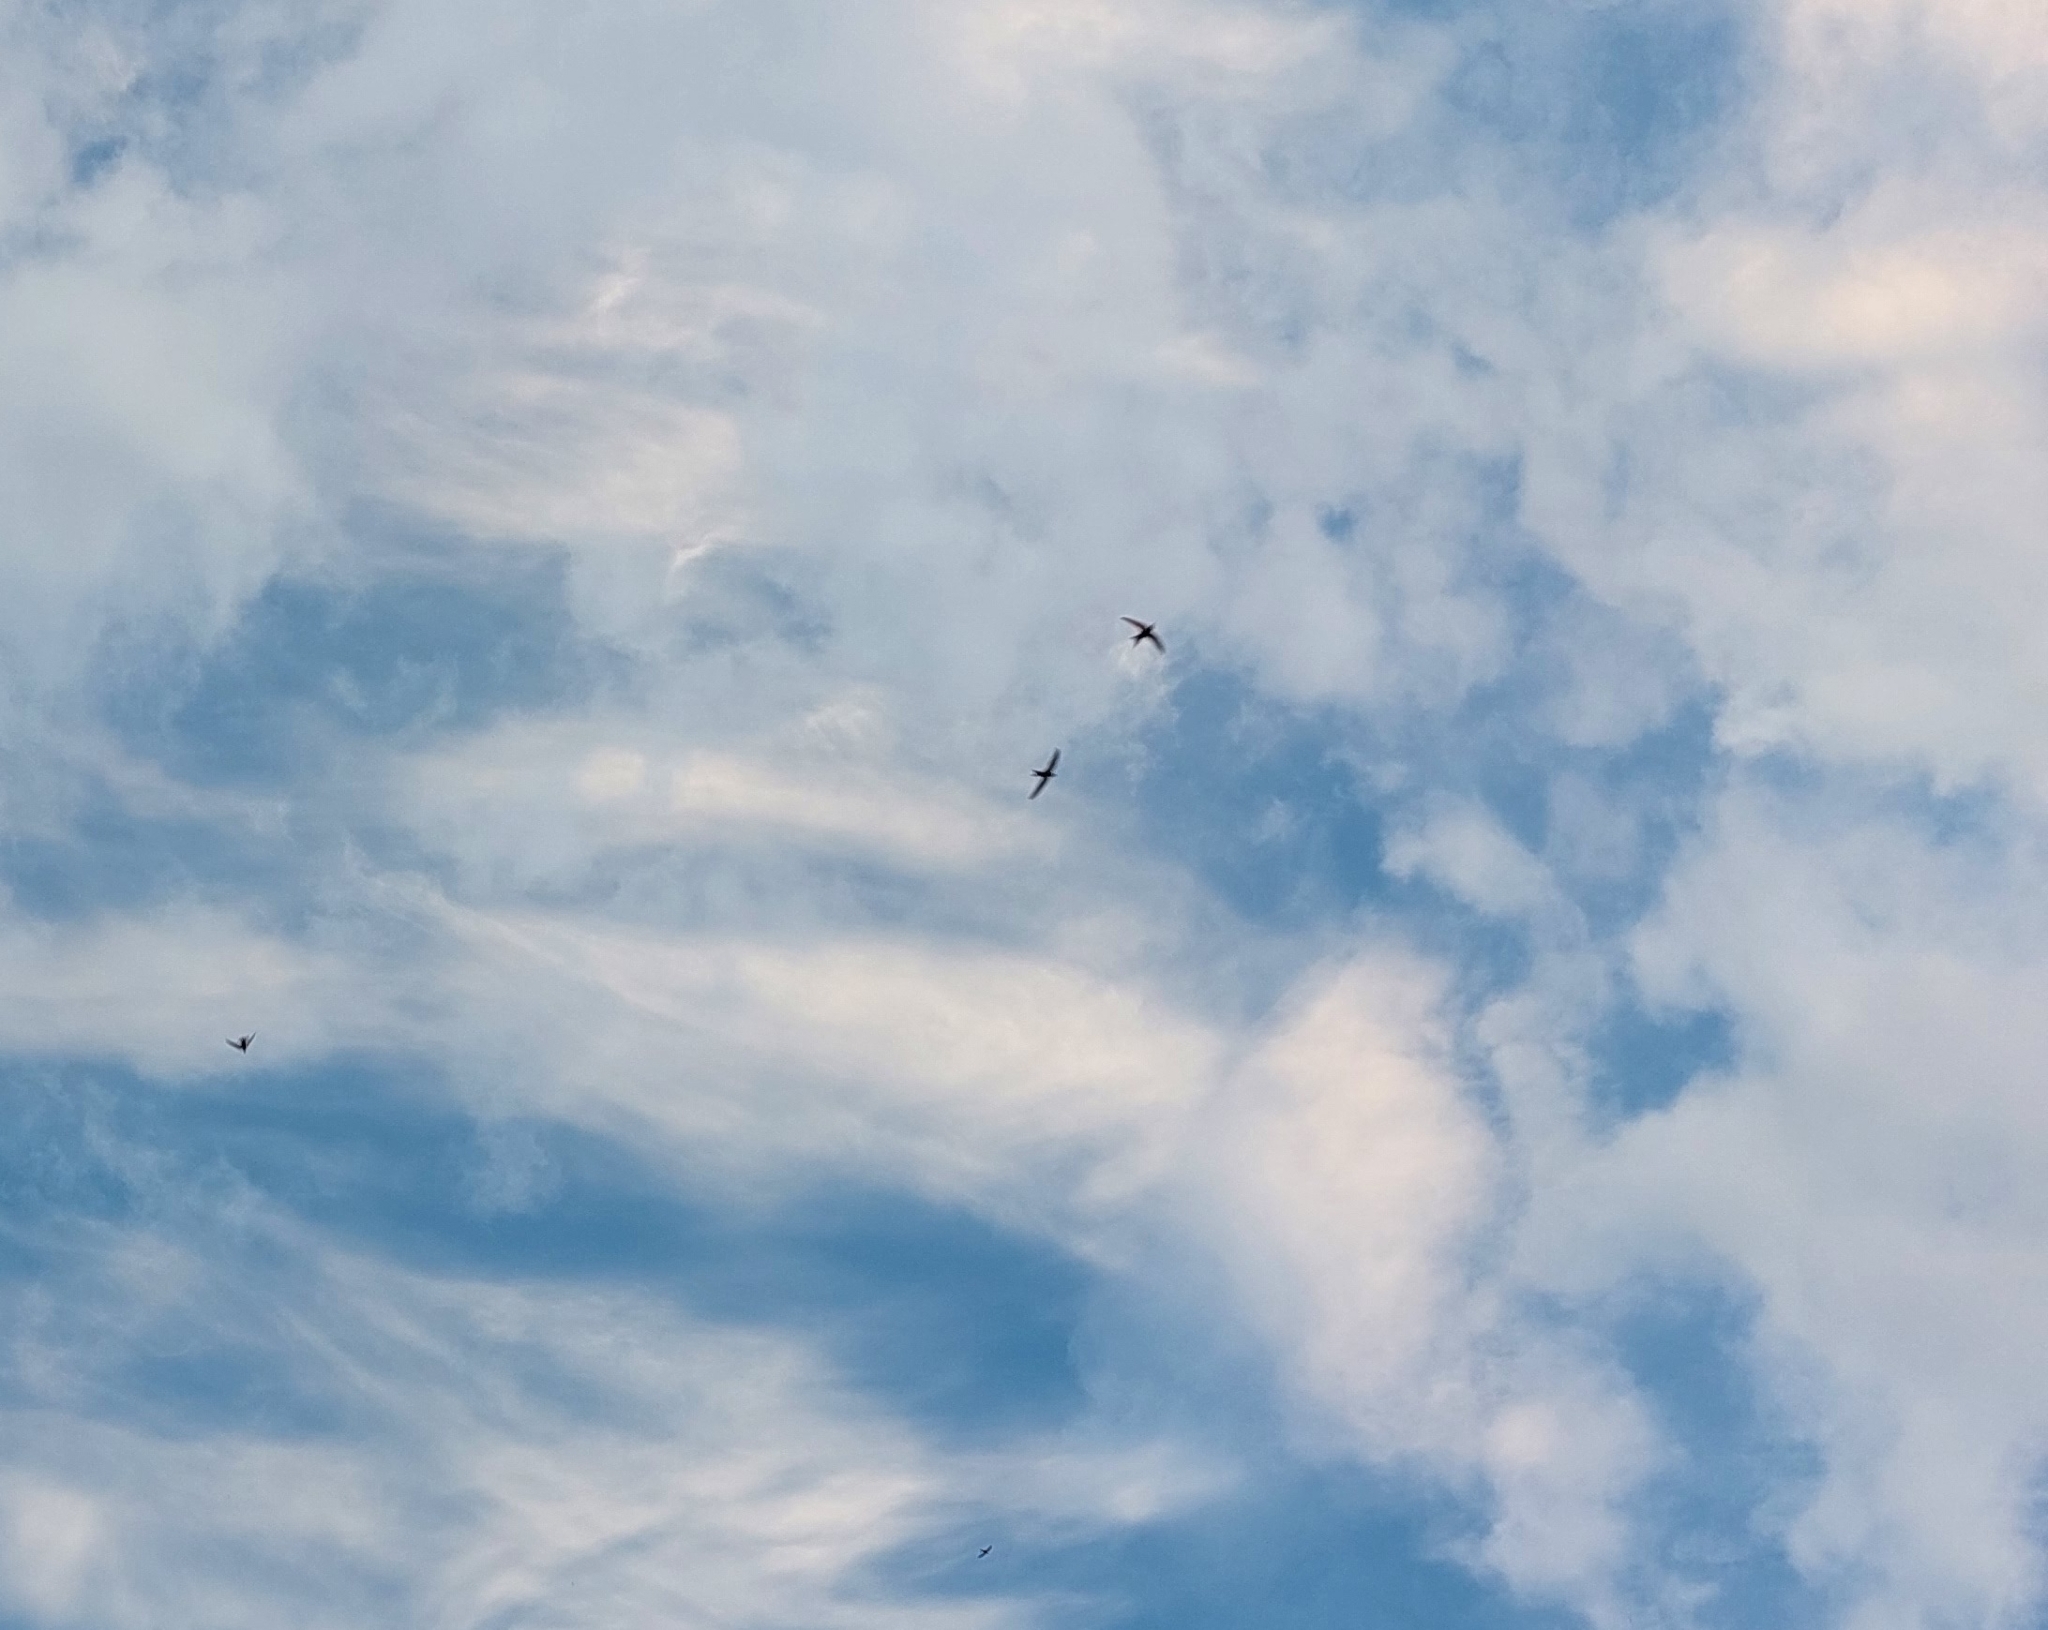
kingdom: Animalia
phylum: Chordata
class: Aves
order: Apodiformes
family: Apodidae
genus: Apus
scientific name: Apus apus
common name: Common swift
